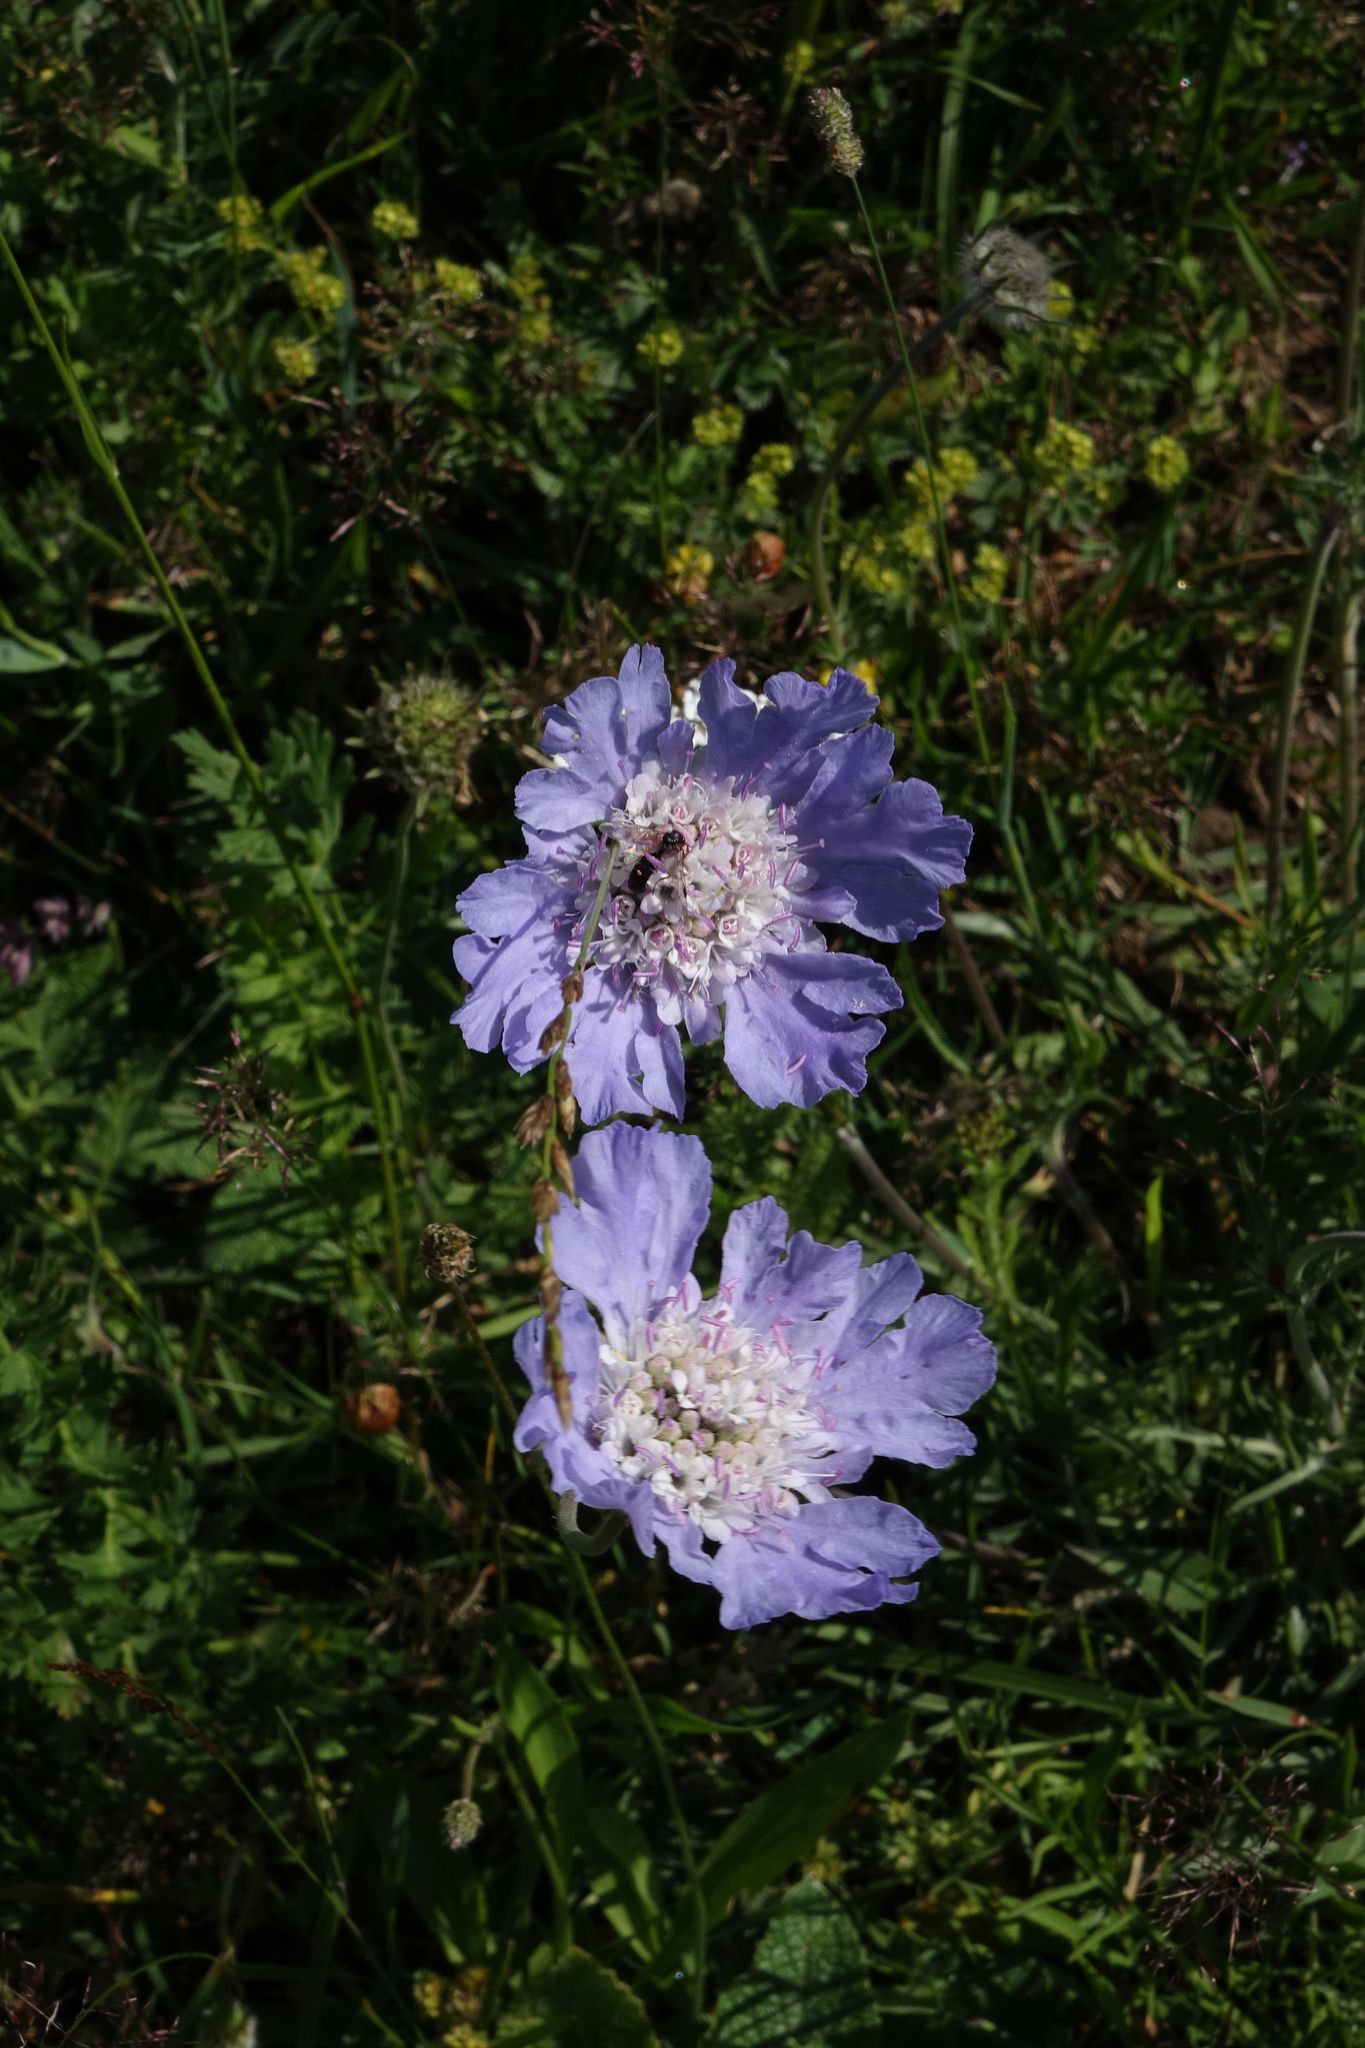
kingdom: Plantae
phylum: Tracheophyta
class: Magnoliopsida
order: Dipsacales
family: Caprifoliaceae
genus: Lomelosia
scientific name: Lomelosia caucasica
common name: Pincushion-flower
